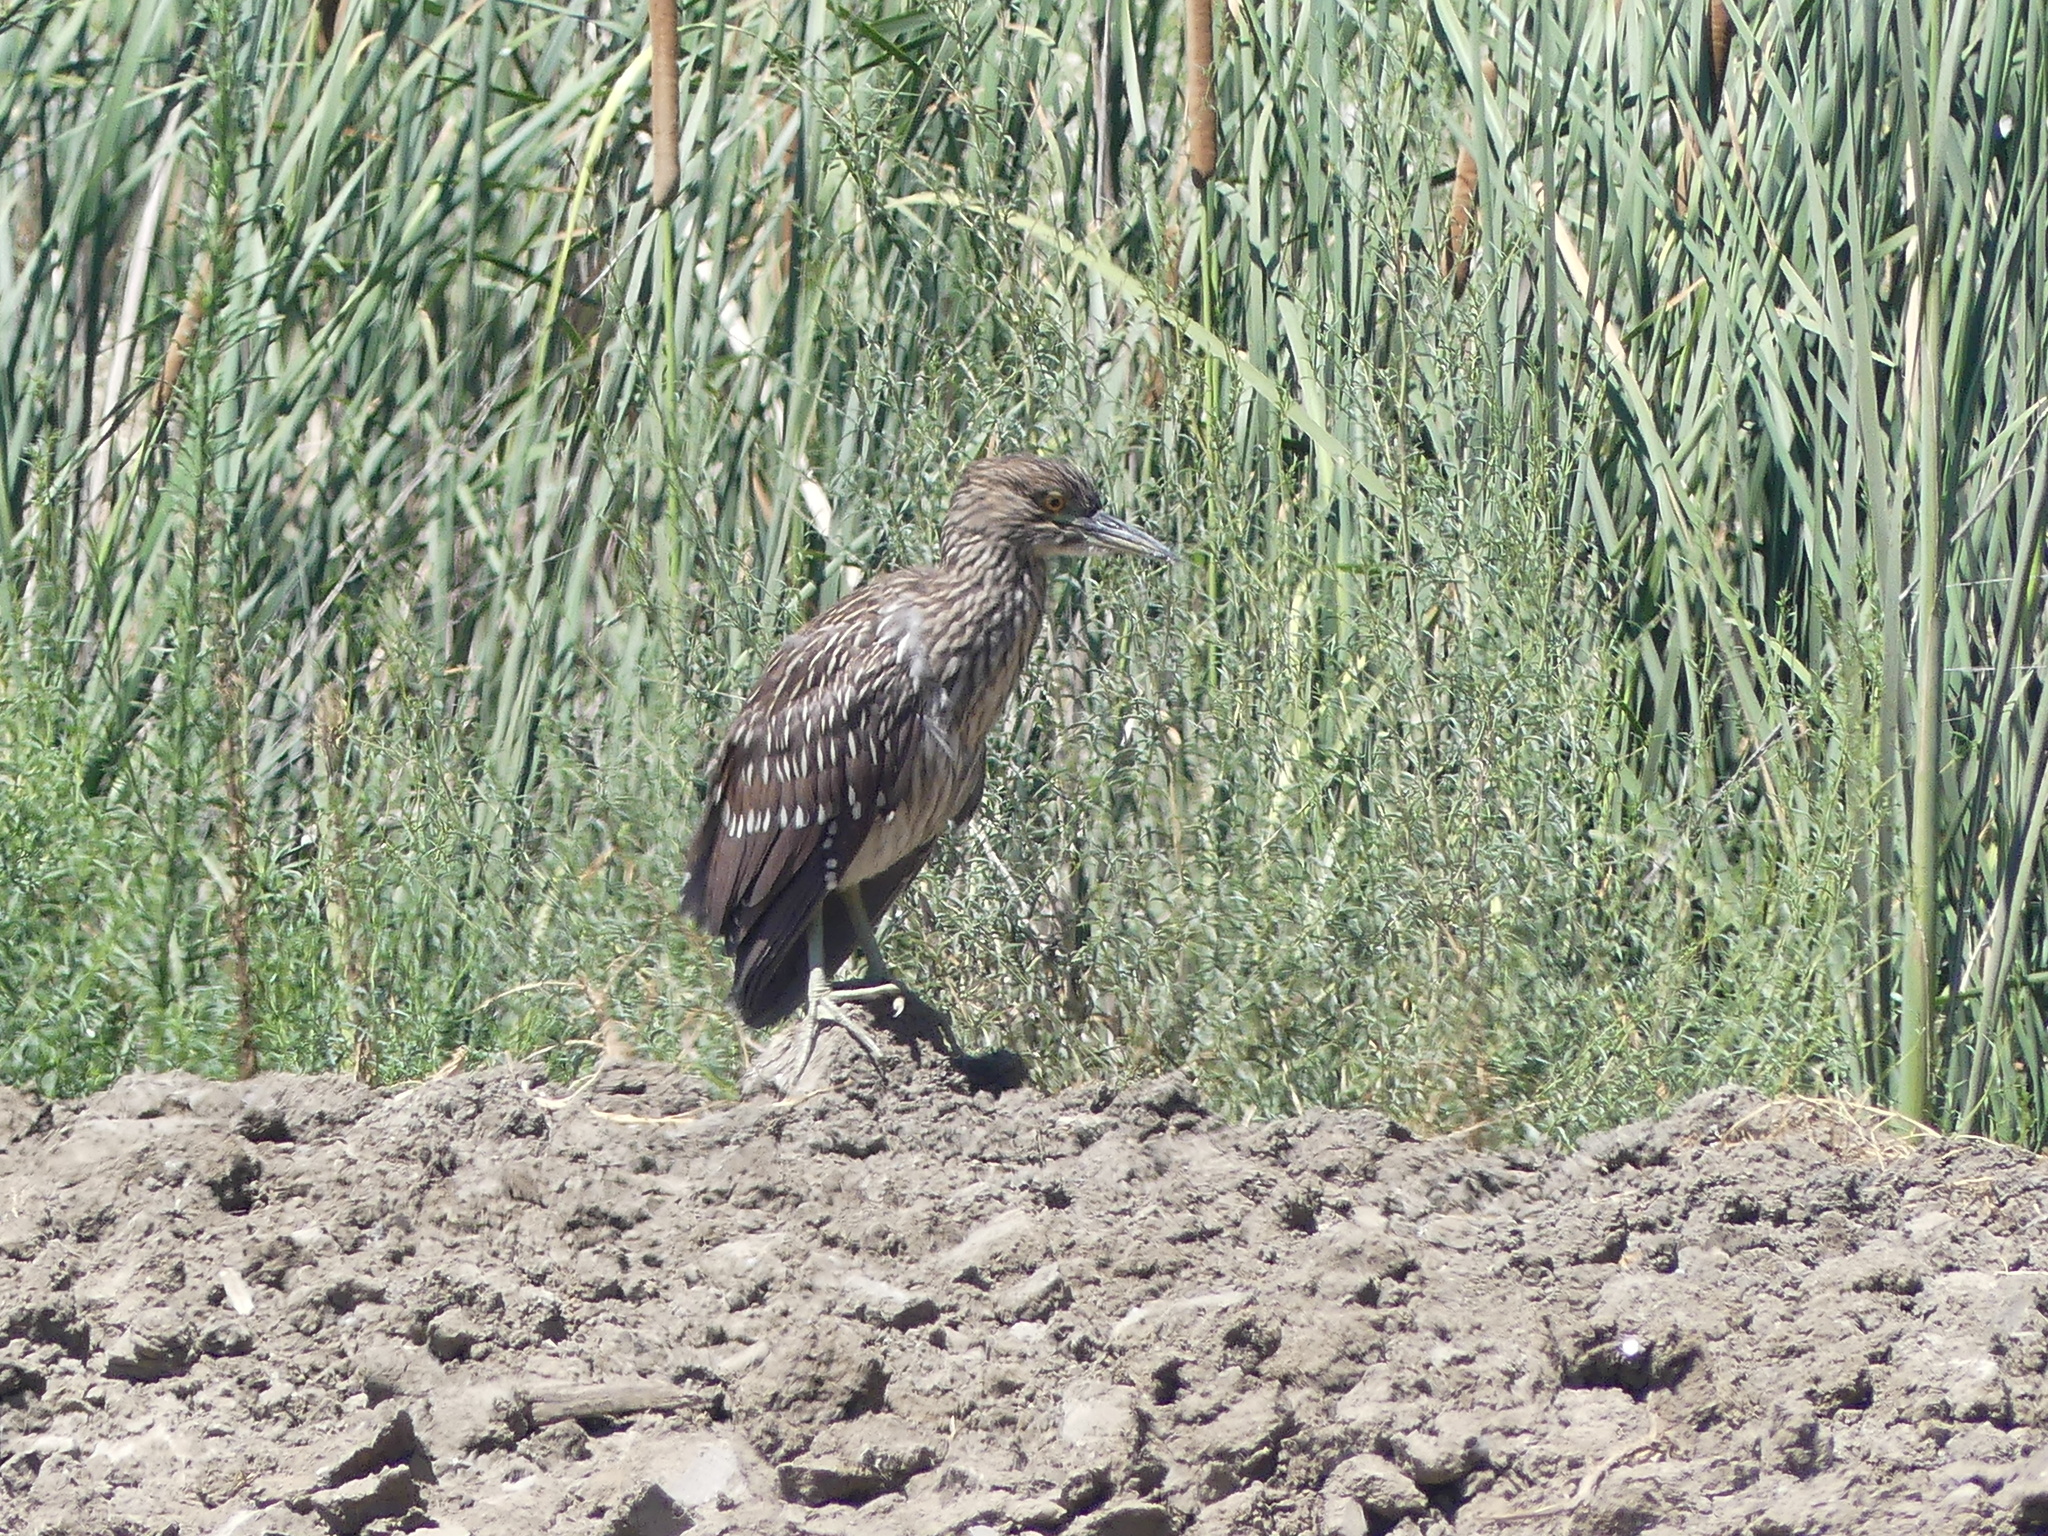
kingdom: Animalia
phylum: Chordata
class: Aves
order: Pelecaniformes
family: Ardeidae
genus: Nycticorax
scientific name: Nycticorax nycticorax
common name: Black-crowned night heron
